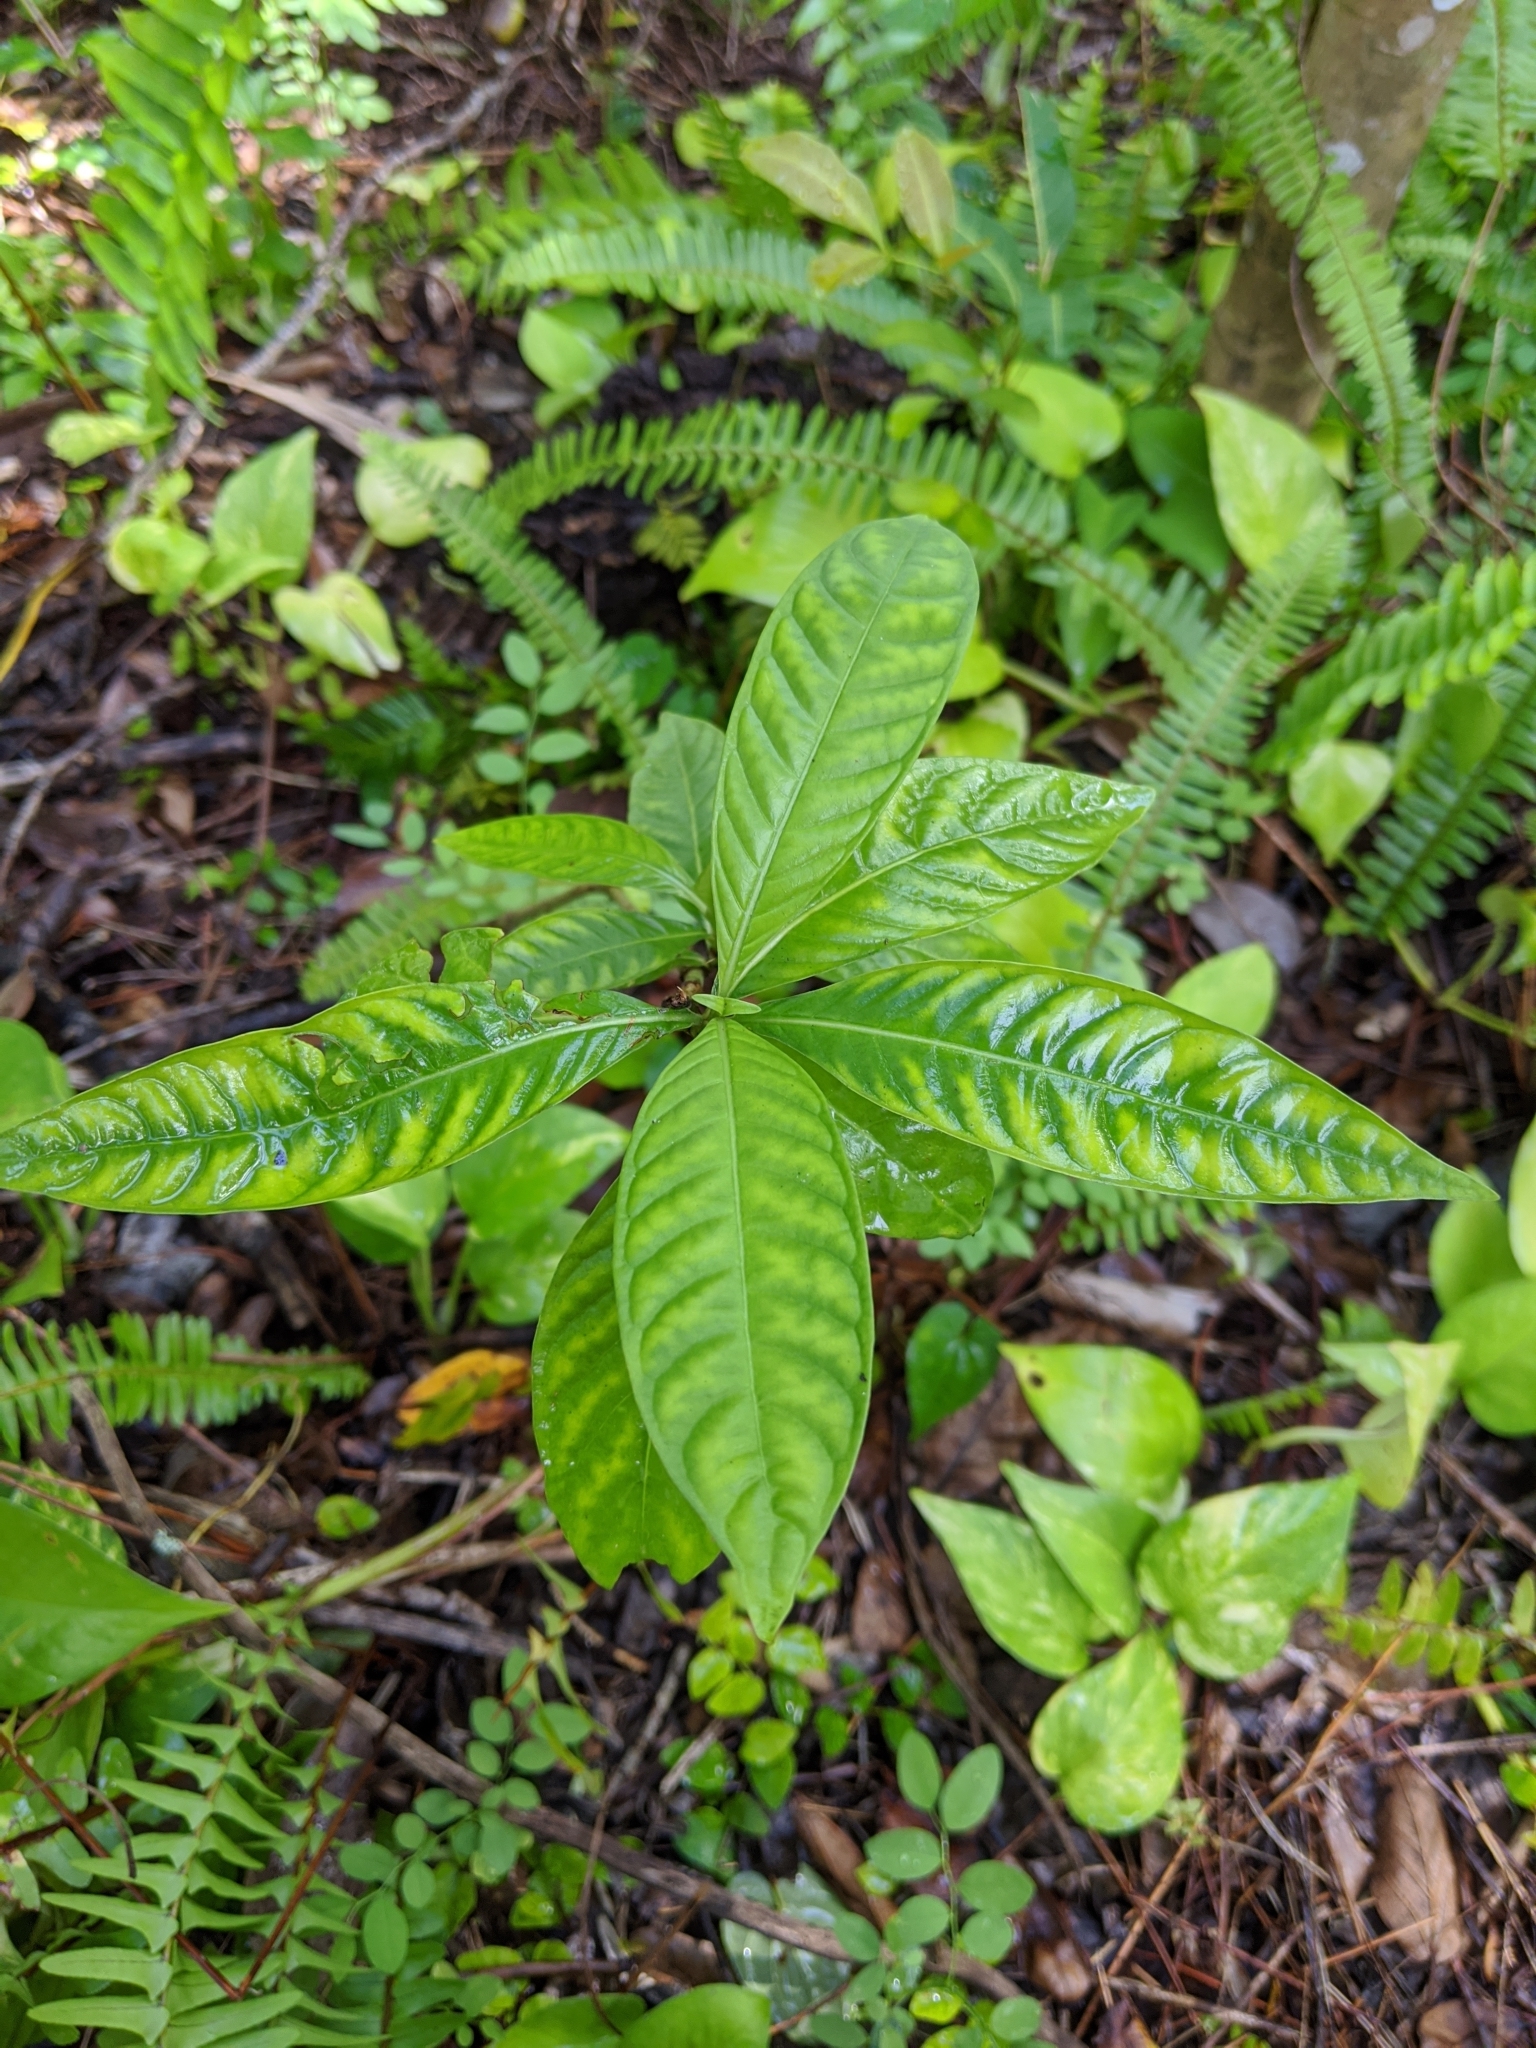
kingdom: Plantae
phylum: Tracheophyta
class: Magnoliopsida
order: Gentianales
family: Rubiaceae
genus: Psychotria
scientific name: Psychotria nervosa
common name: Bastard cankerberry
